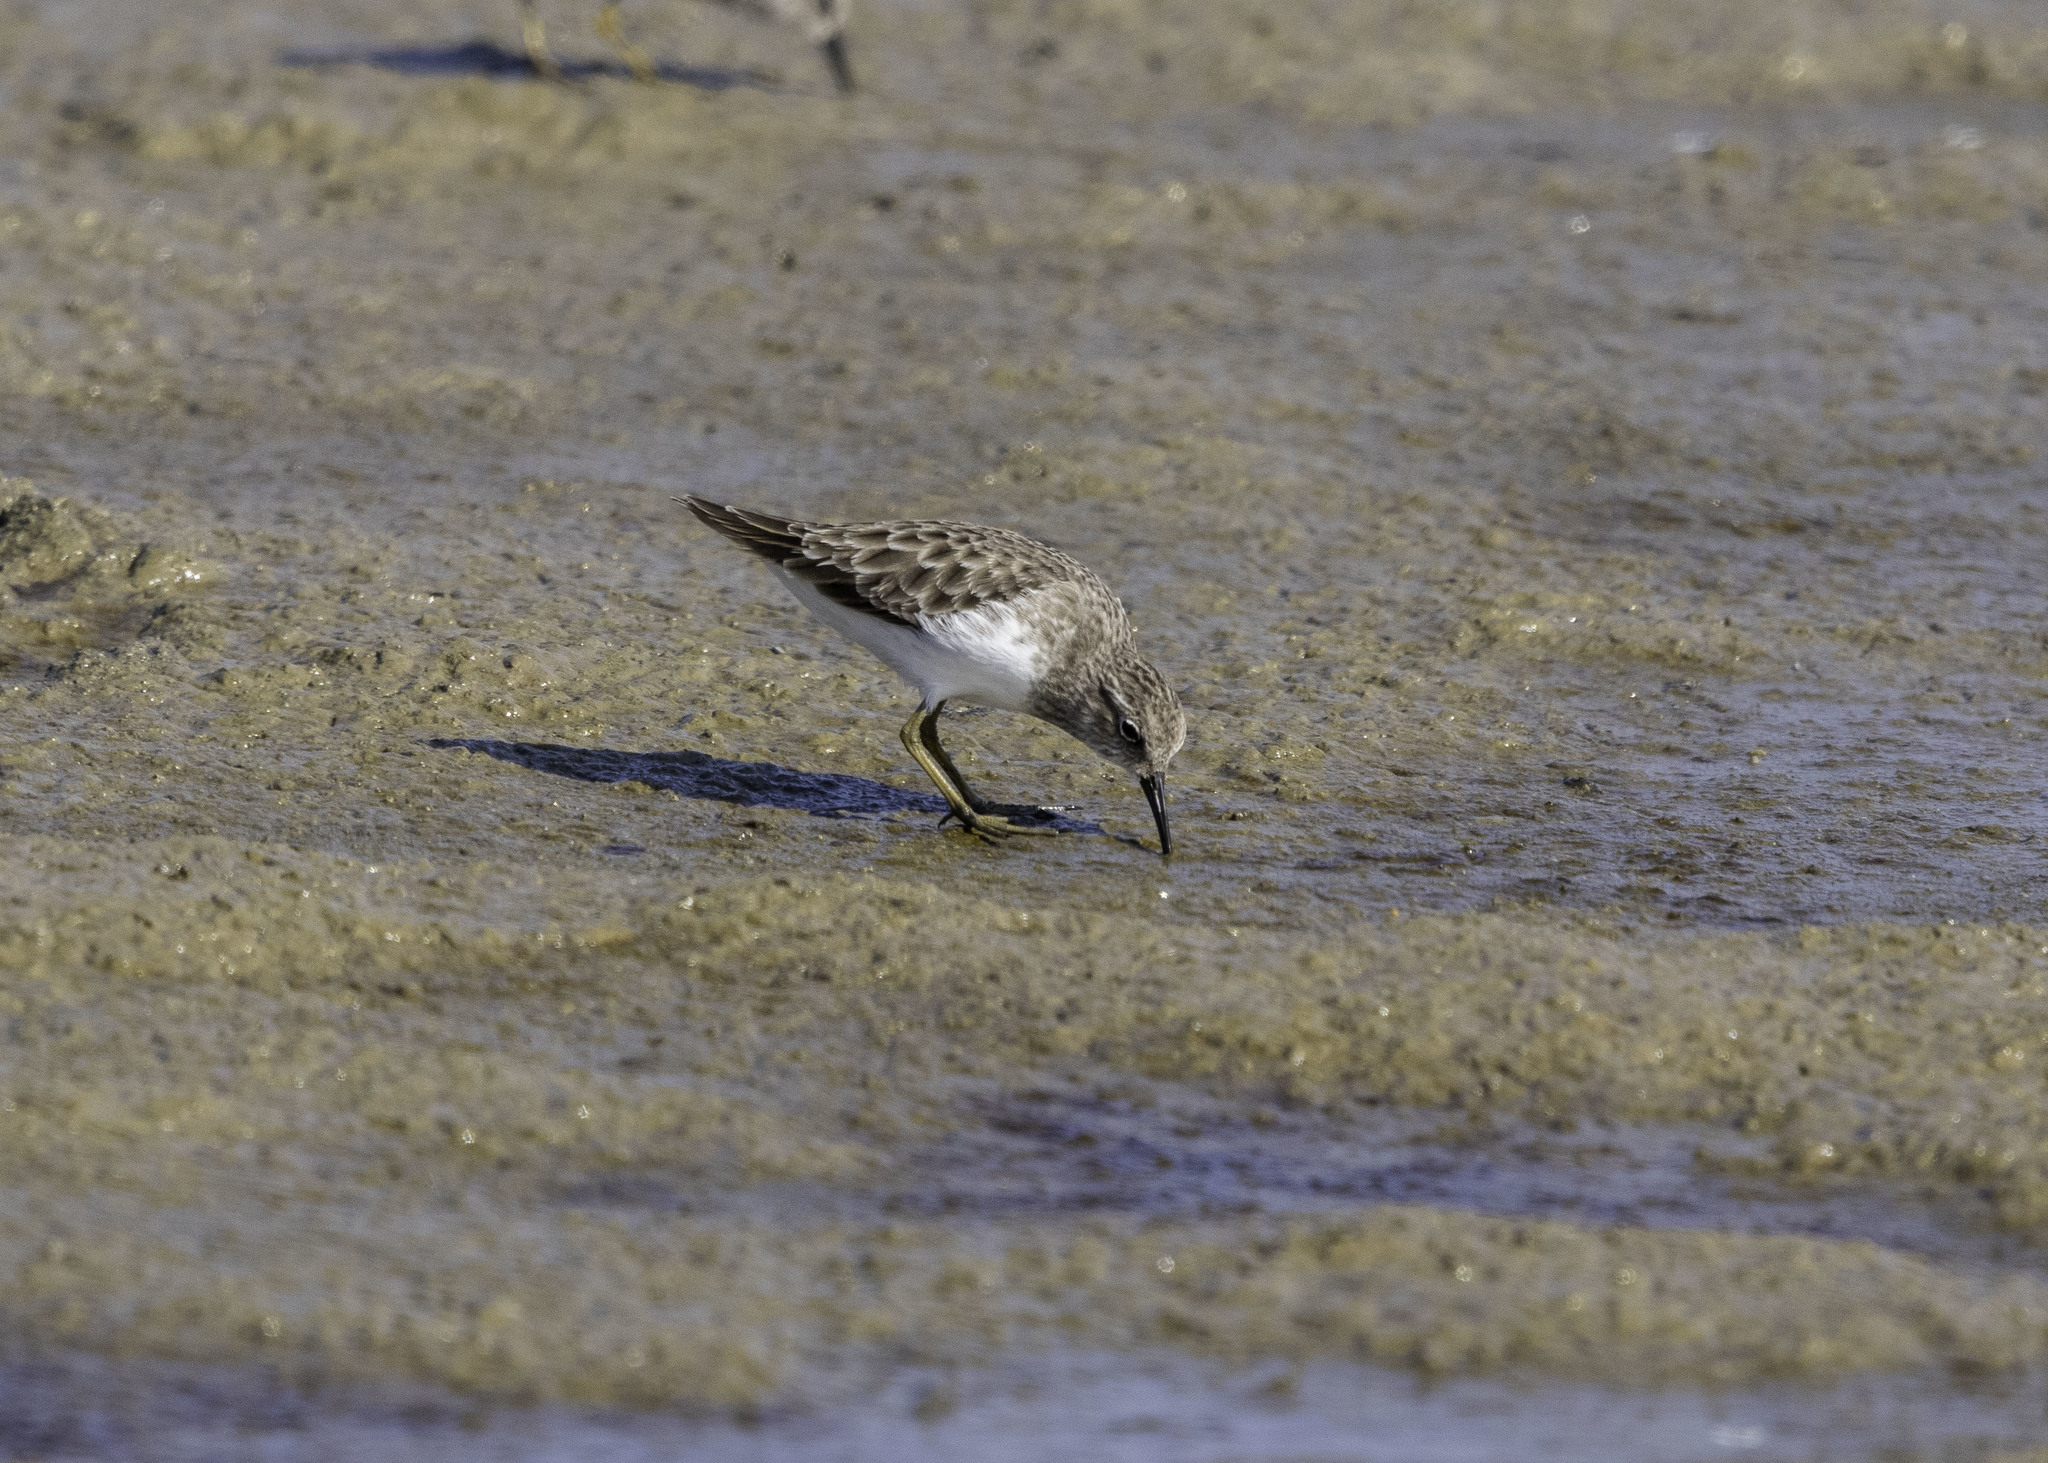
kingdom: Animalia
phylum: Chordata
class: Aves
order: Charadriiformes
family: Scolopacidae
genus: Calidris
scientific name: Calidris minutilla
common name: Least sandpiper
